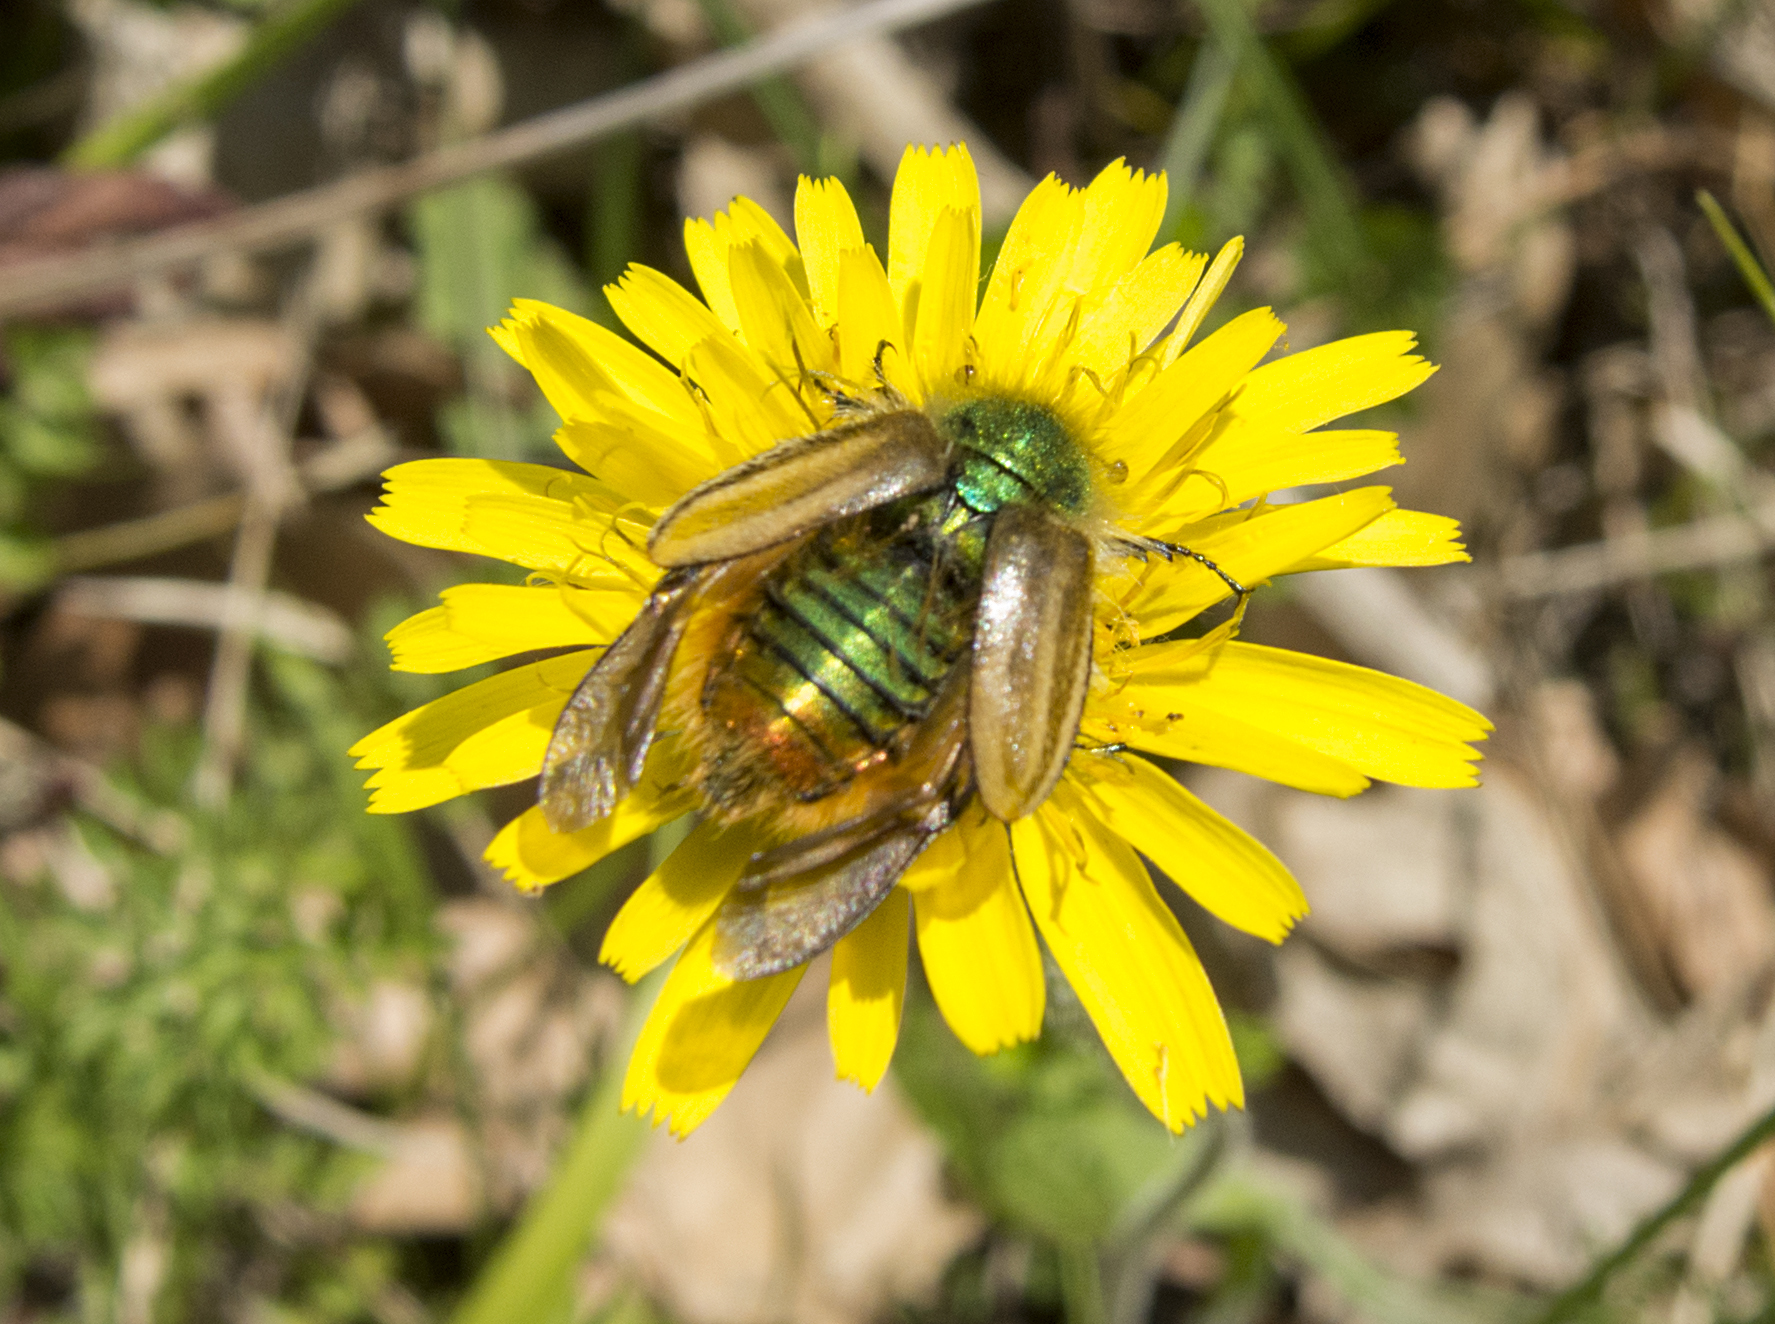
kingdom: Animalia
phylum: Arthropoda
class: Insecta
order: Coleoptera
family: Glaphyridae
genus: Eulasia
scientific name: Eulasia pareyssei
